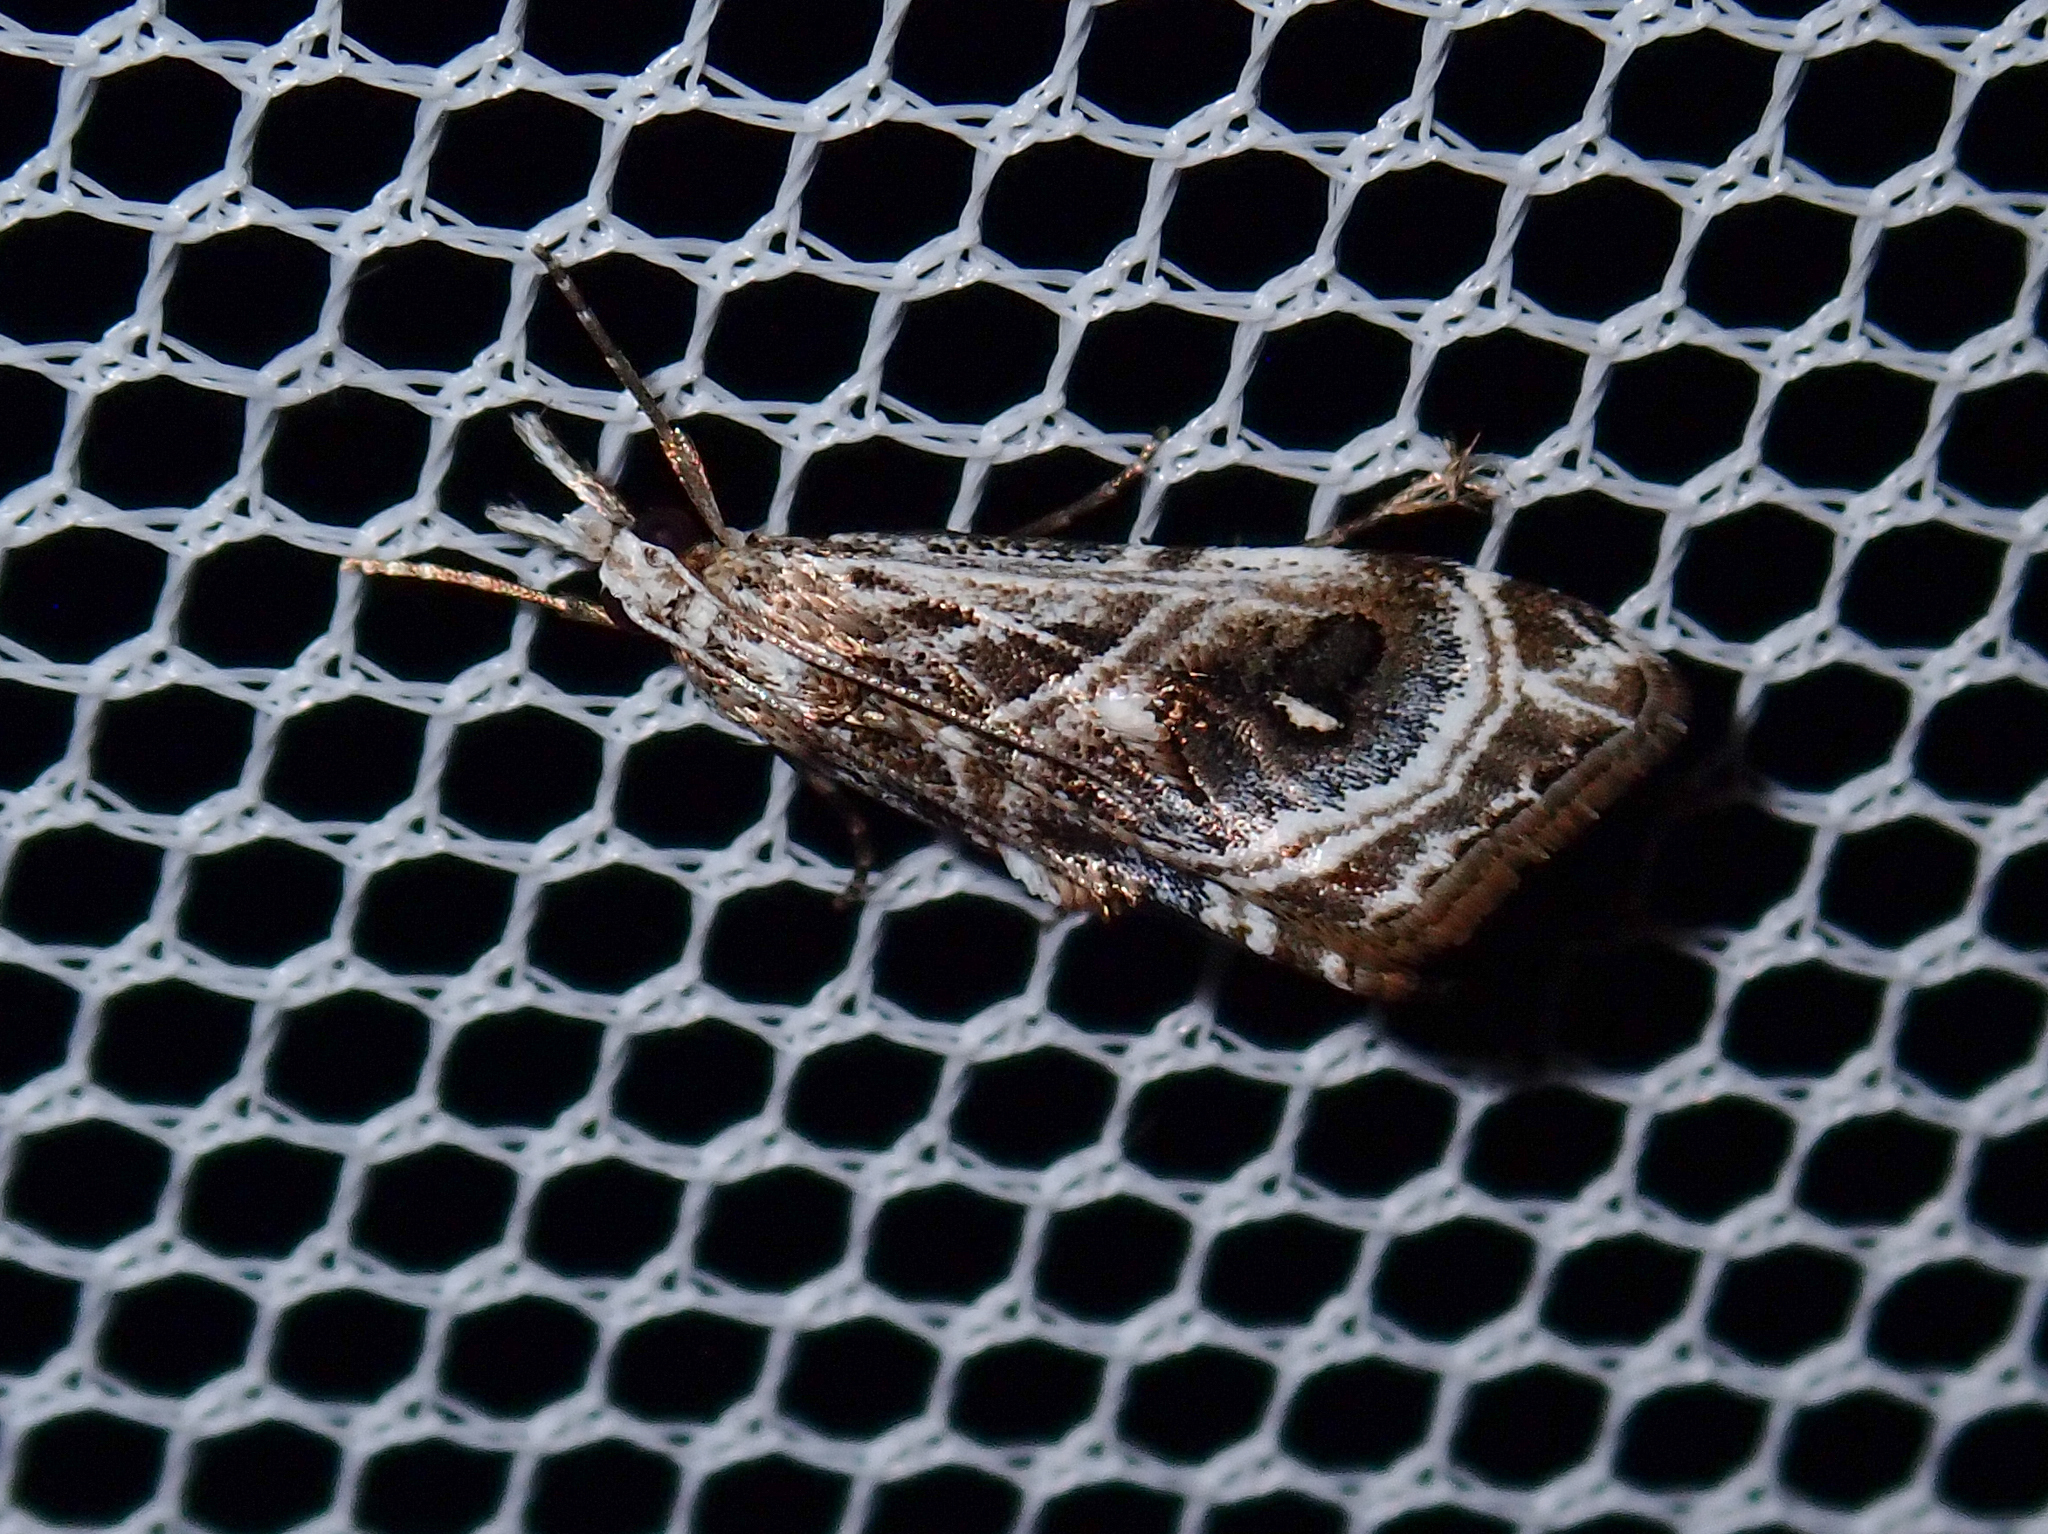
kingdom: Animalia
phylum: Arthropoda
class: Insecta
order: Lepidoptera
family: Crambidae
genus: Gadira
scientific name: Gadira acerella
